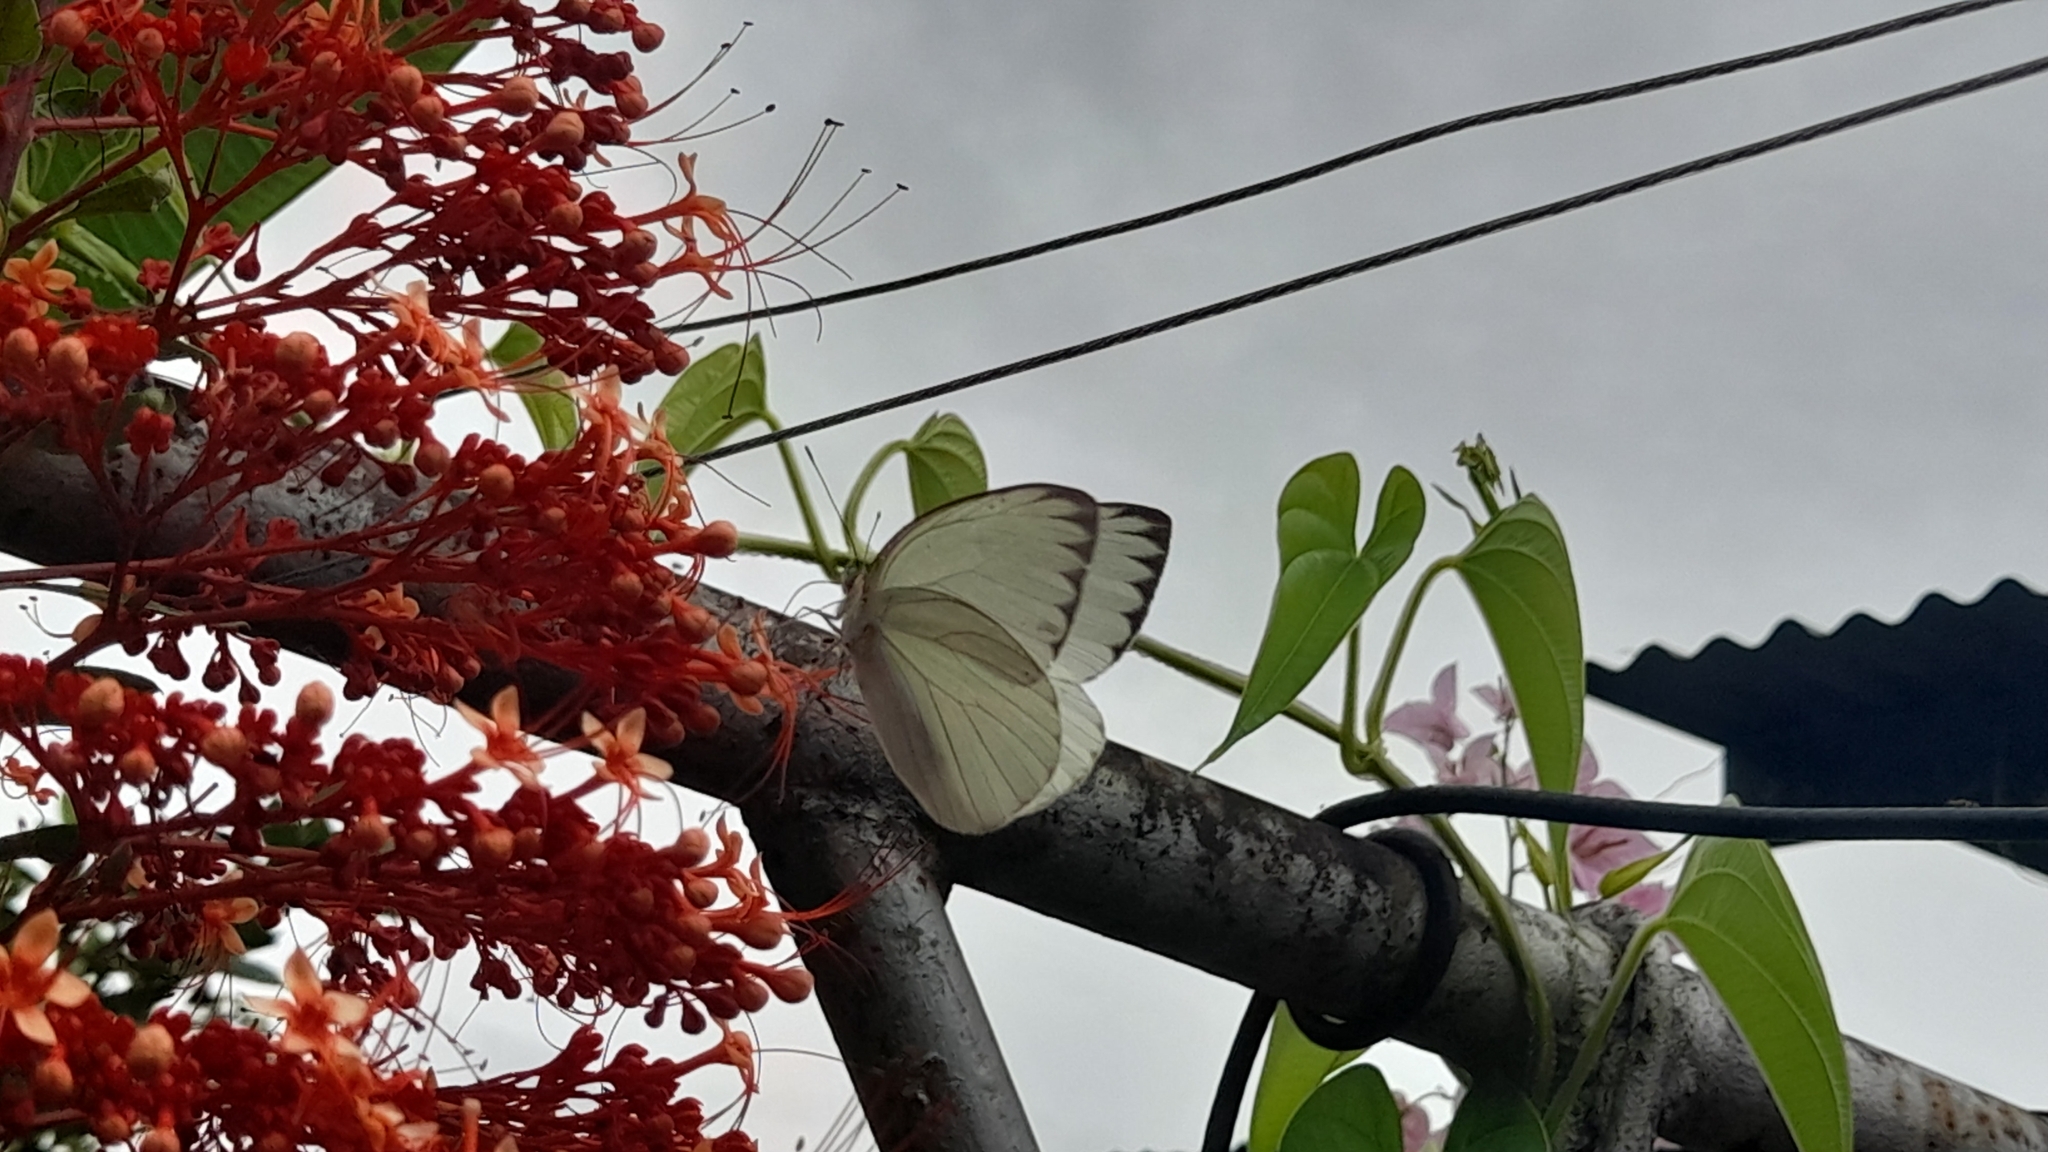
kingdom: Animalia
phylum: Arthropoda
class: Insecta
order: Lepidoptera
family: Pieridae
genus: Ascia
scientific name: Ascia monuste
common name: Great southern white
